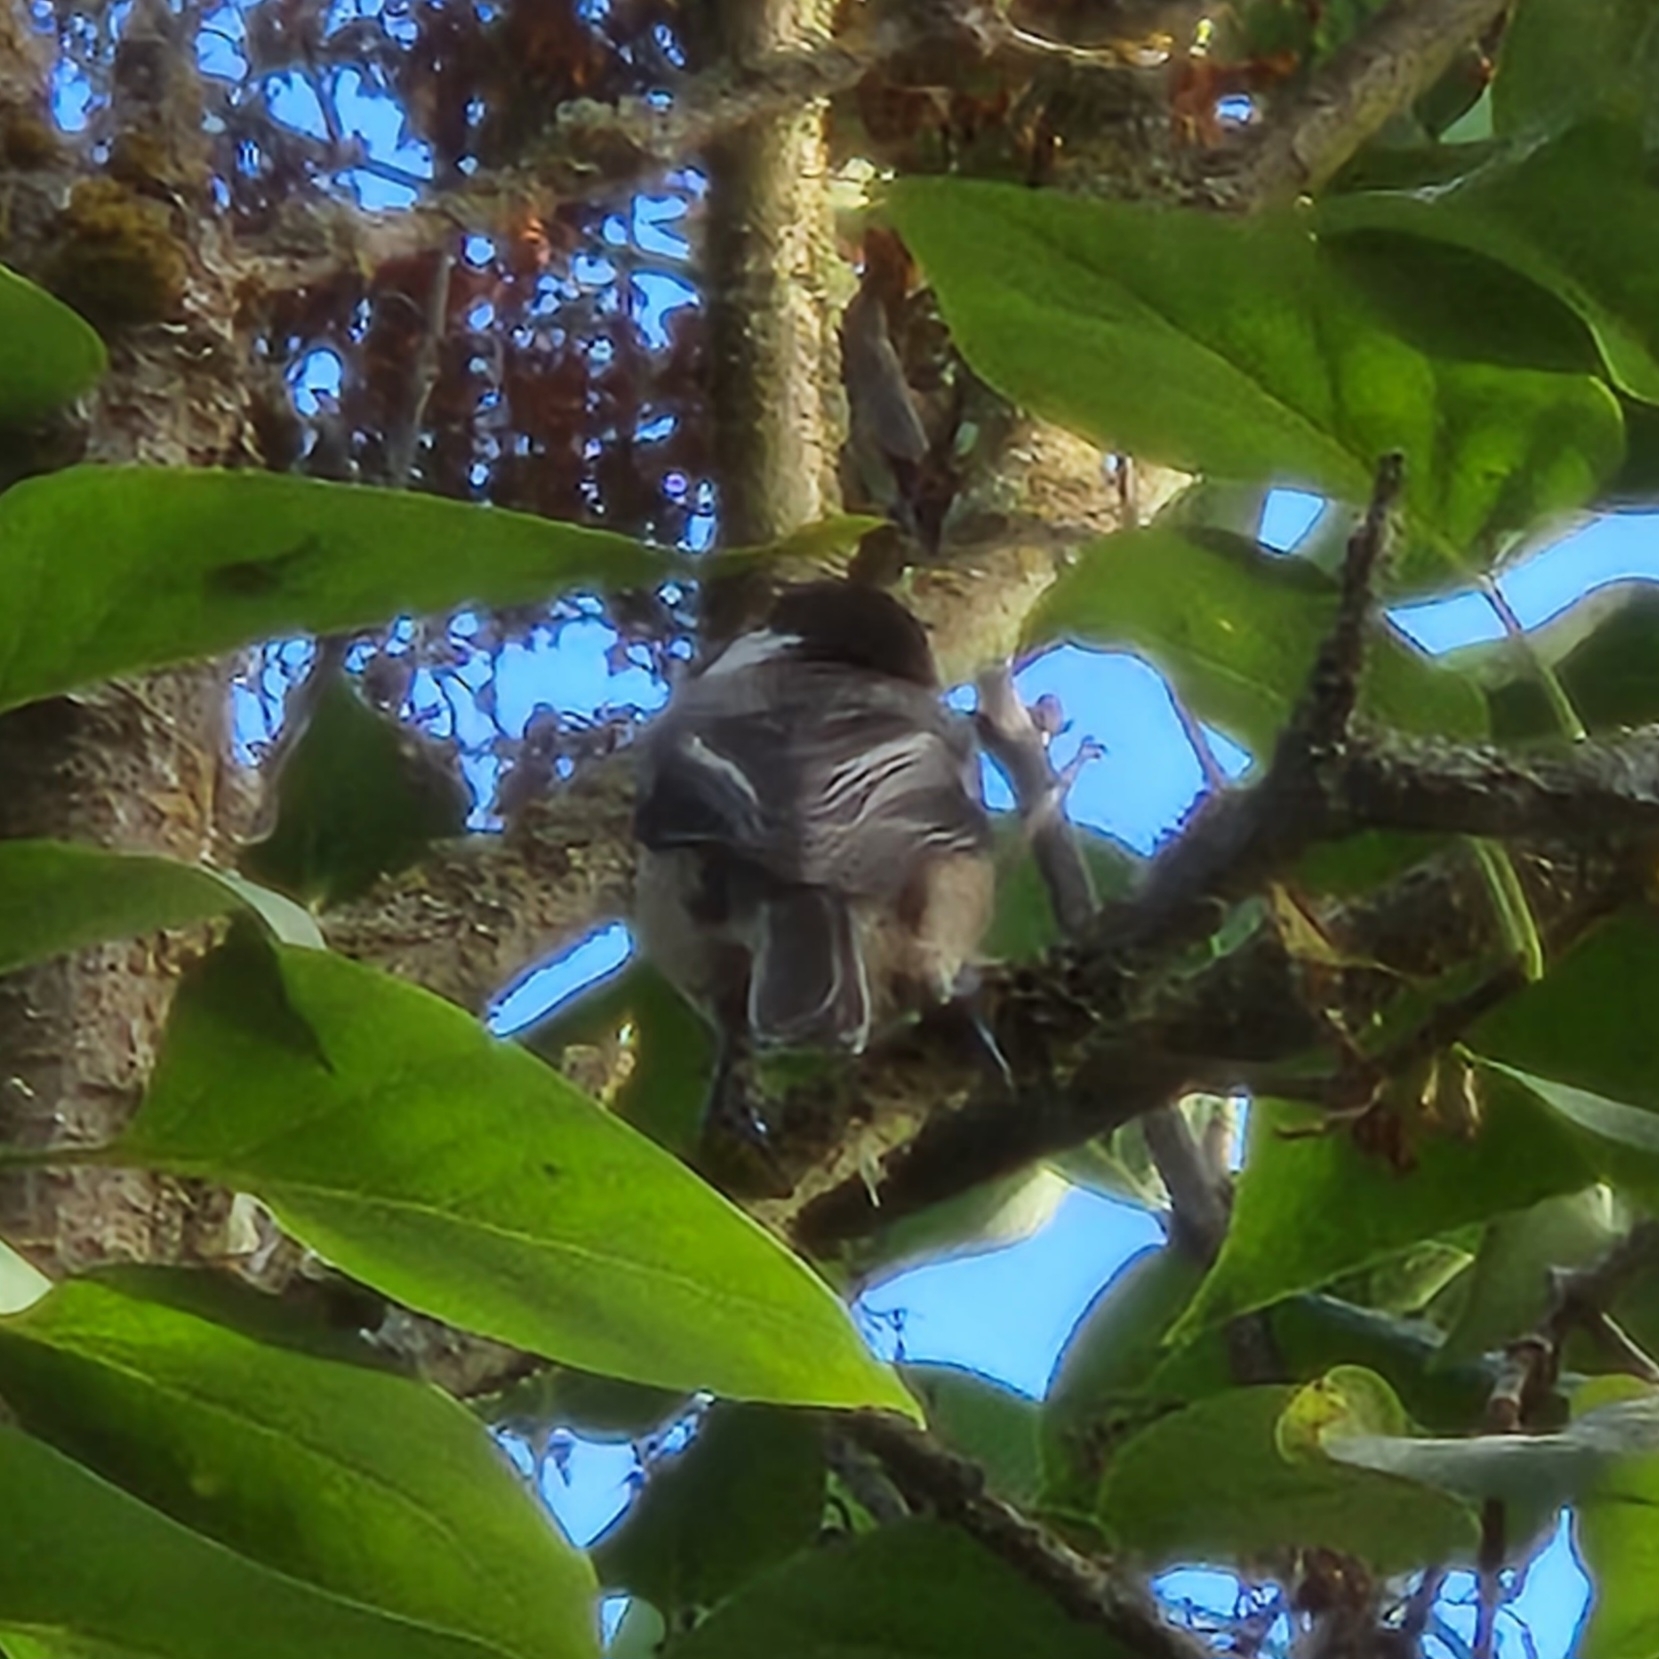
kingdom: Animalia
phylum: Chordata
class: Aves
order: Passeriformes
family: Paridae
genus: Poecile
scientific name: Poecile atricapillus
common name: Black-capped chickadee
